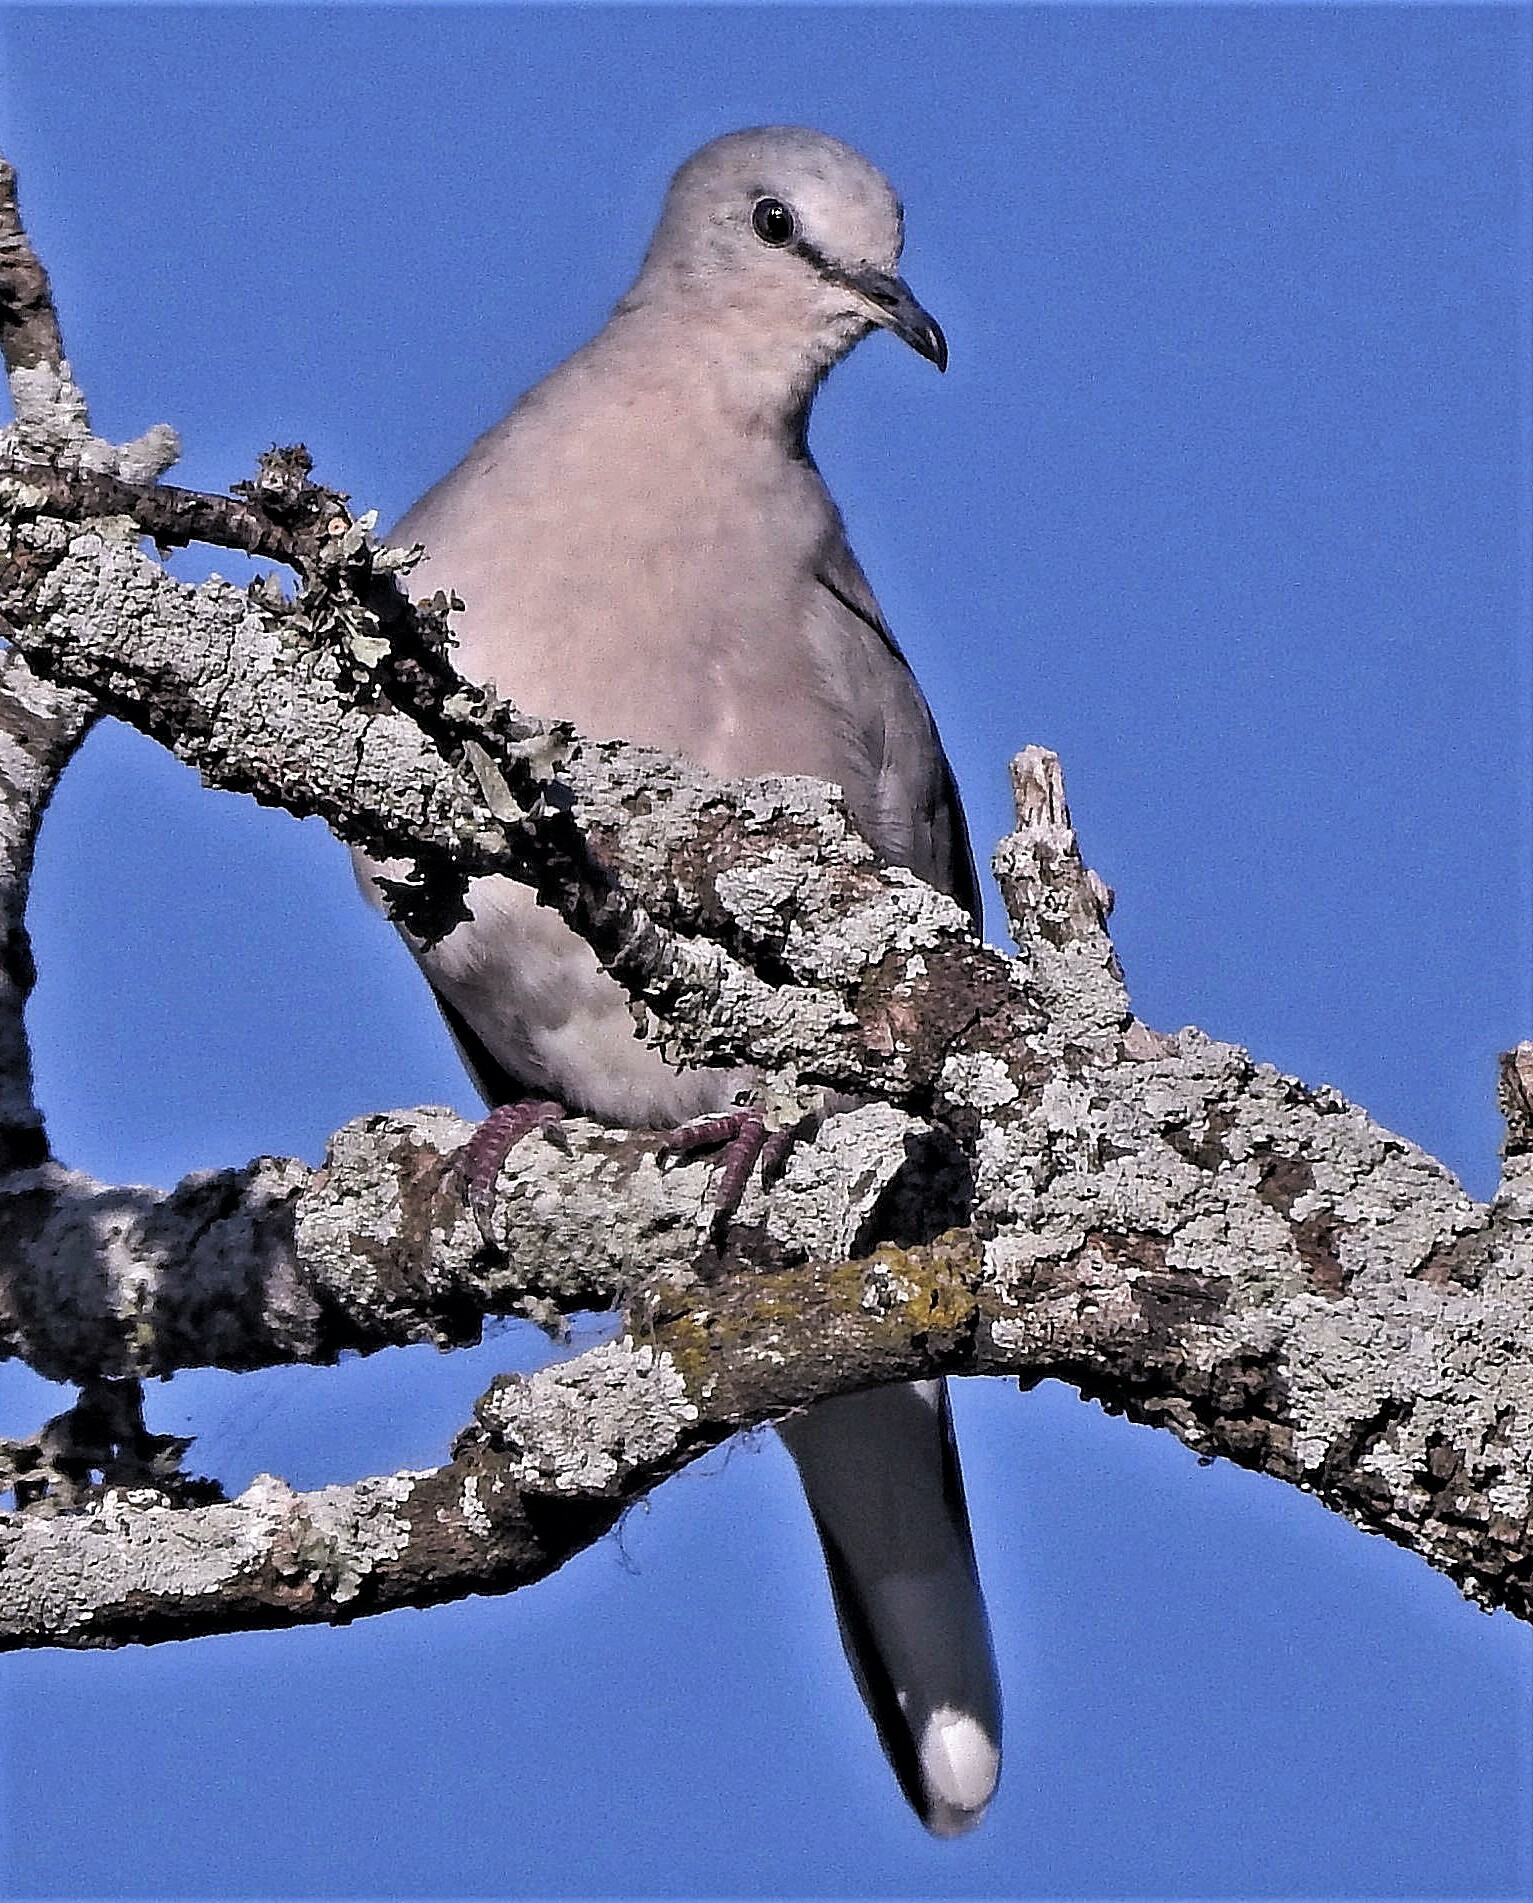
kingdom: Animalia
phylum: Chordata
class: Aves
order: Columbiformes
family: Columbidae
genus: Columbina
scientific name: Columbina picui
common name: Picui ground dove
